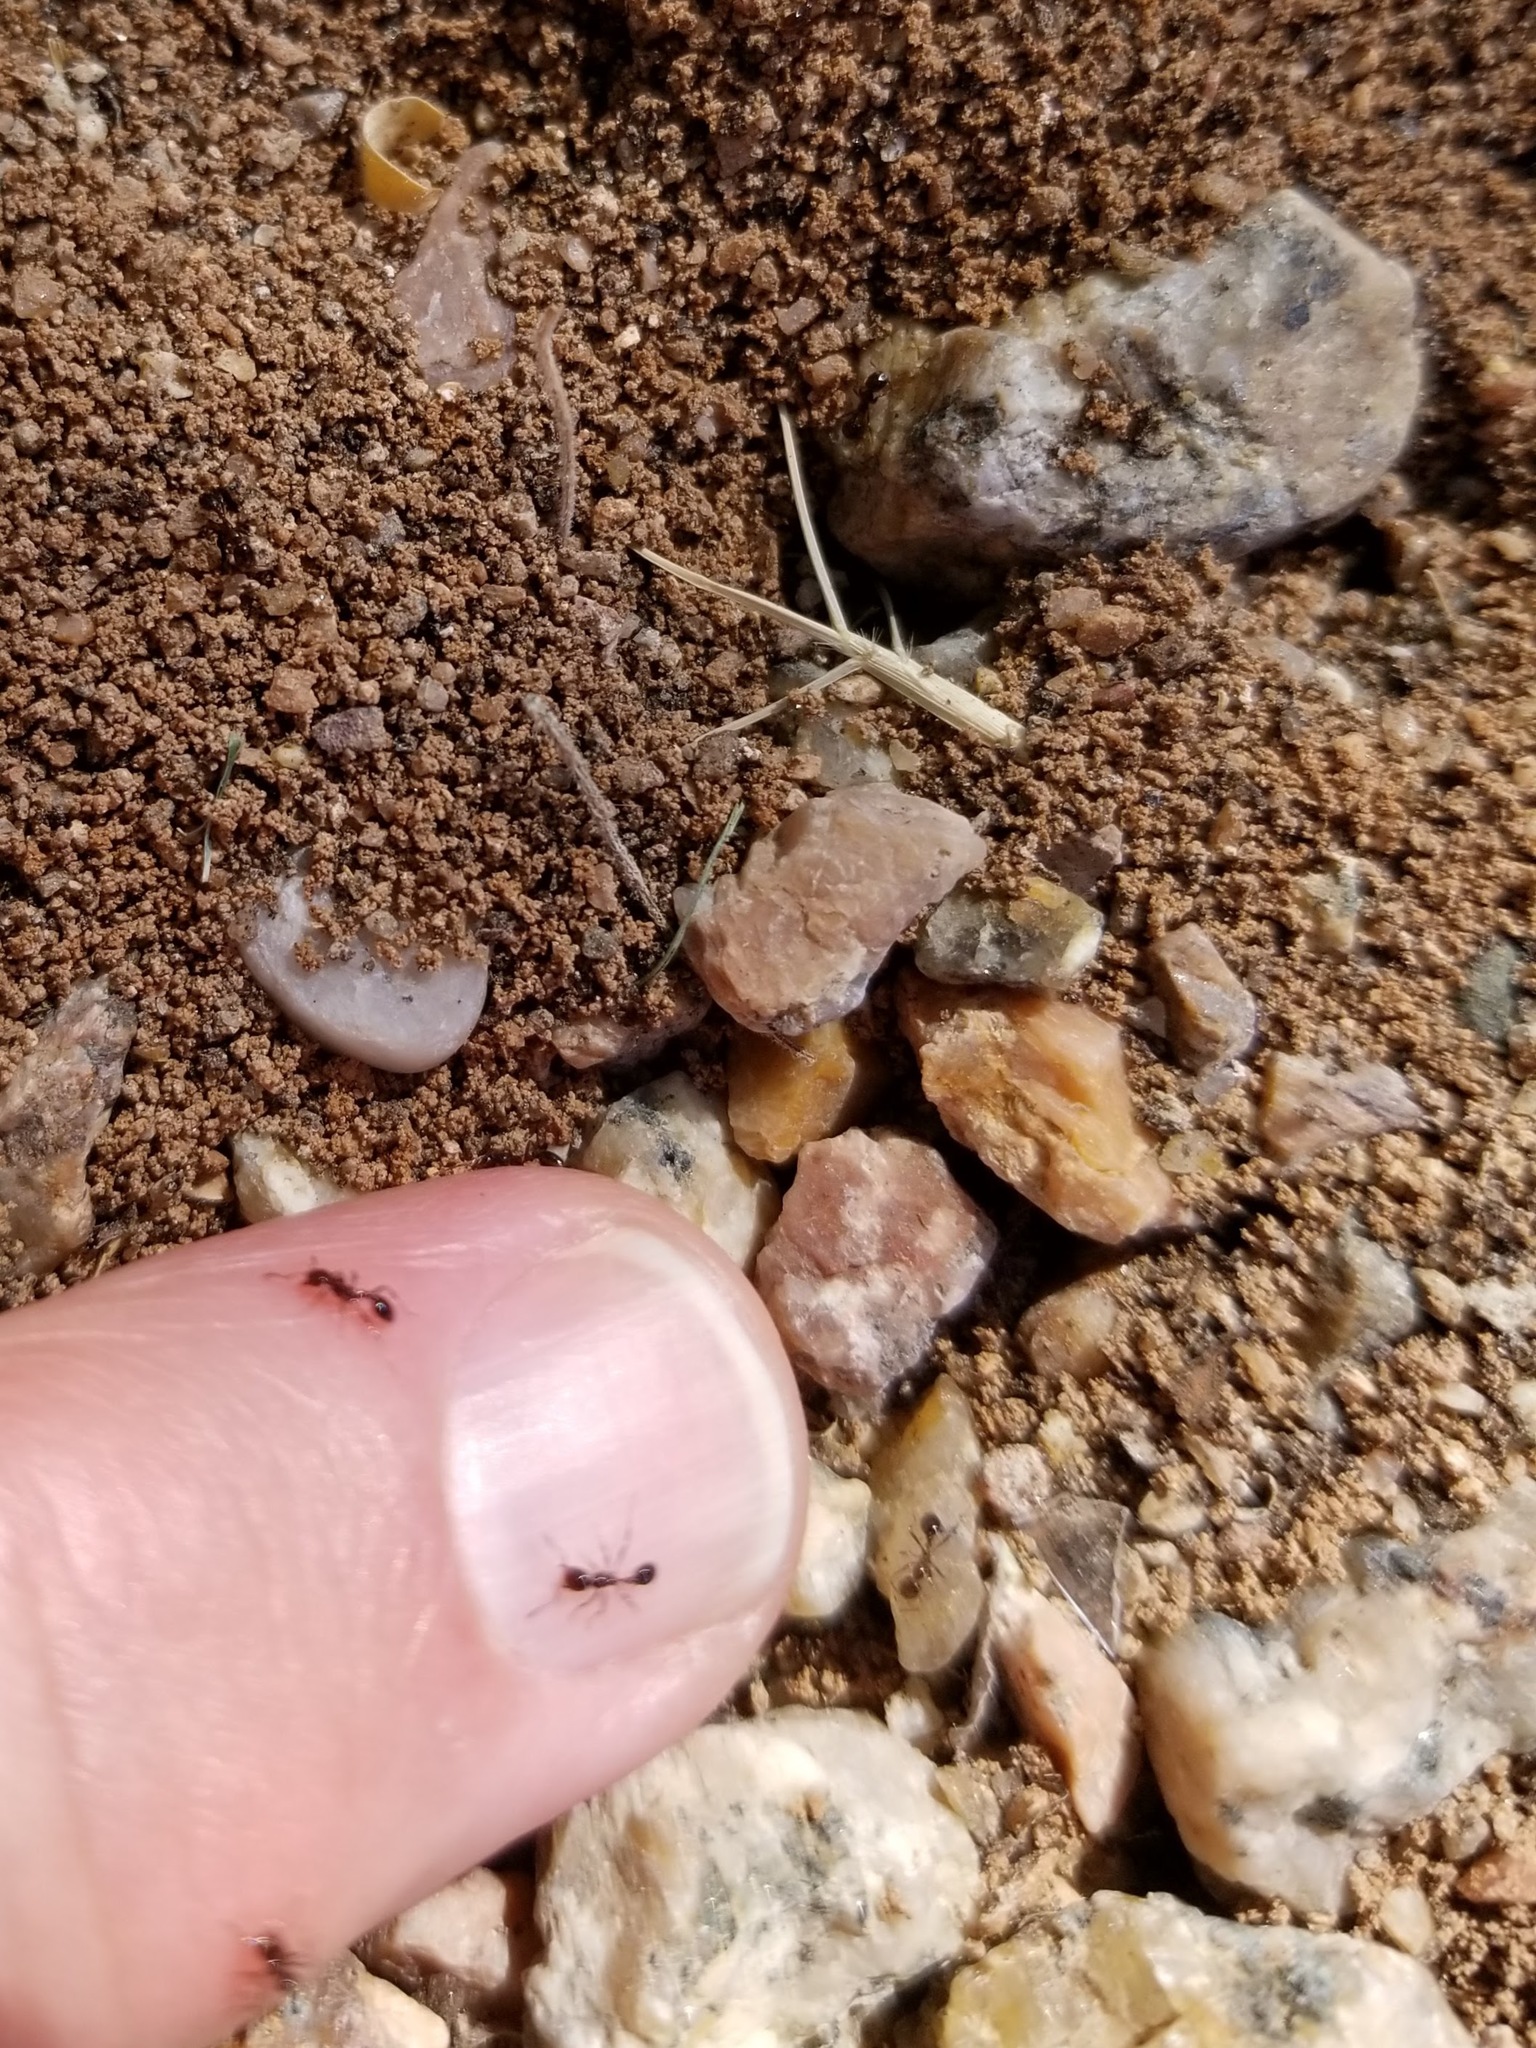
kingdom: Animalia
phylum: Arthropoda
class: Insecta
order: Hymenoptera
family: Formicidae
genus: Solenopsis
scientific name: Solenopsis xyloni
